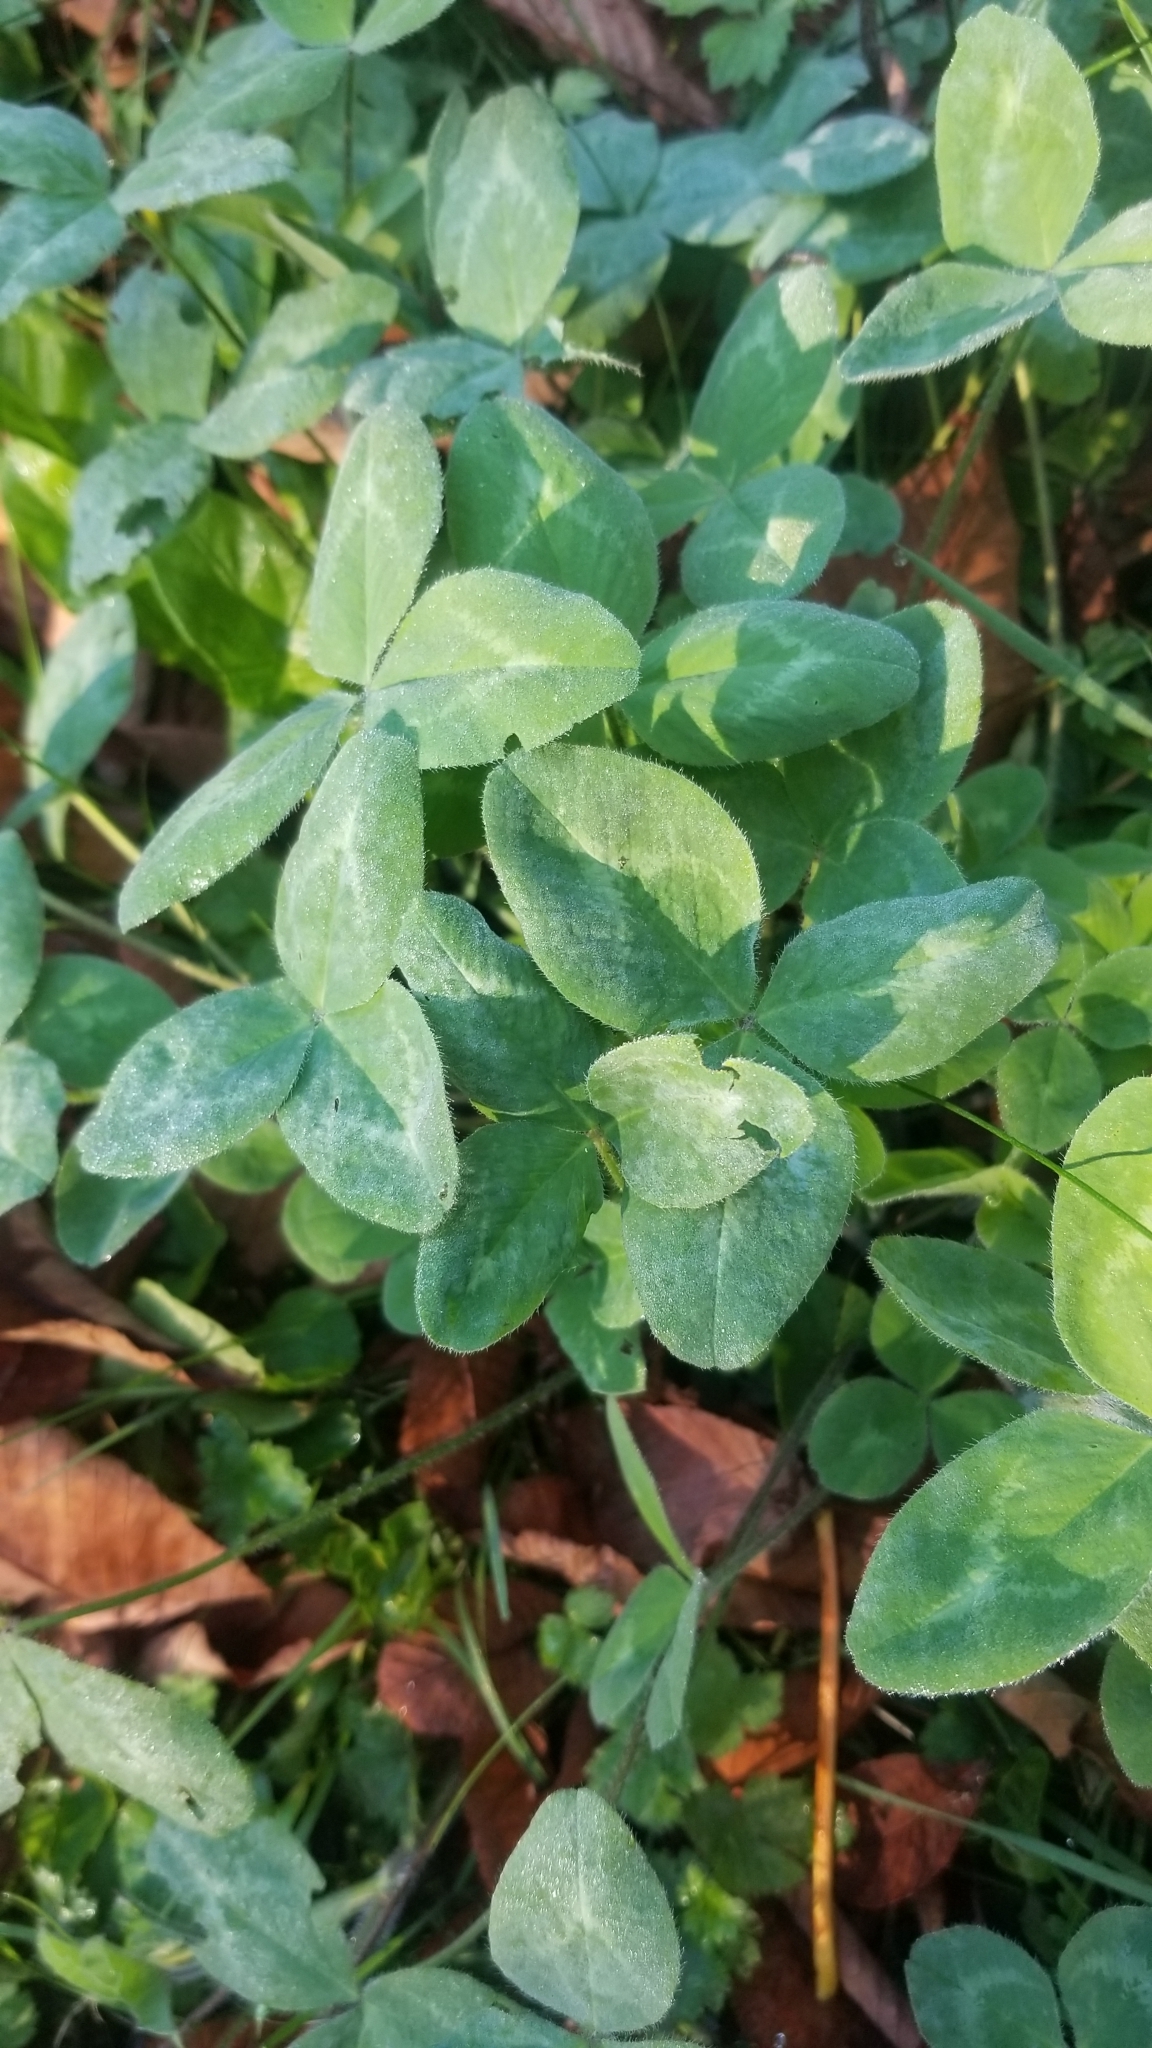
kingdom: Plantae
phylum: Tracheophyta
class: Magnoliopsida
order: Fabales
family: Fabaceae
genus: Trifolium
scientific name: Trifolium pratense
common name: Red clover
